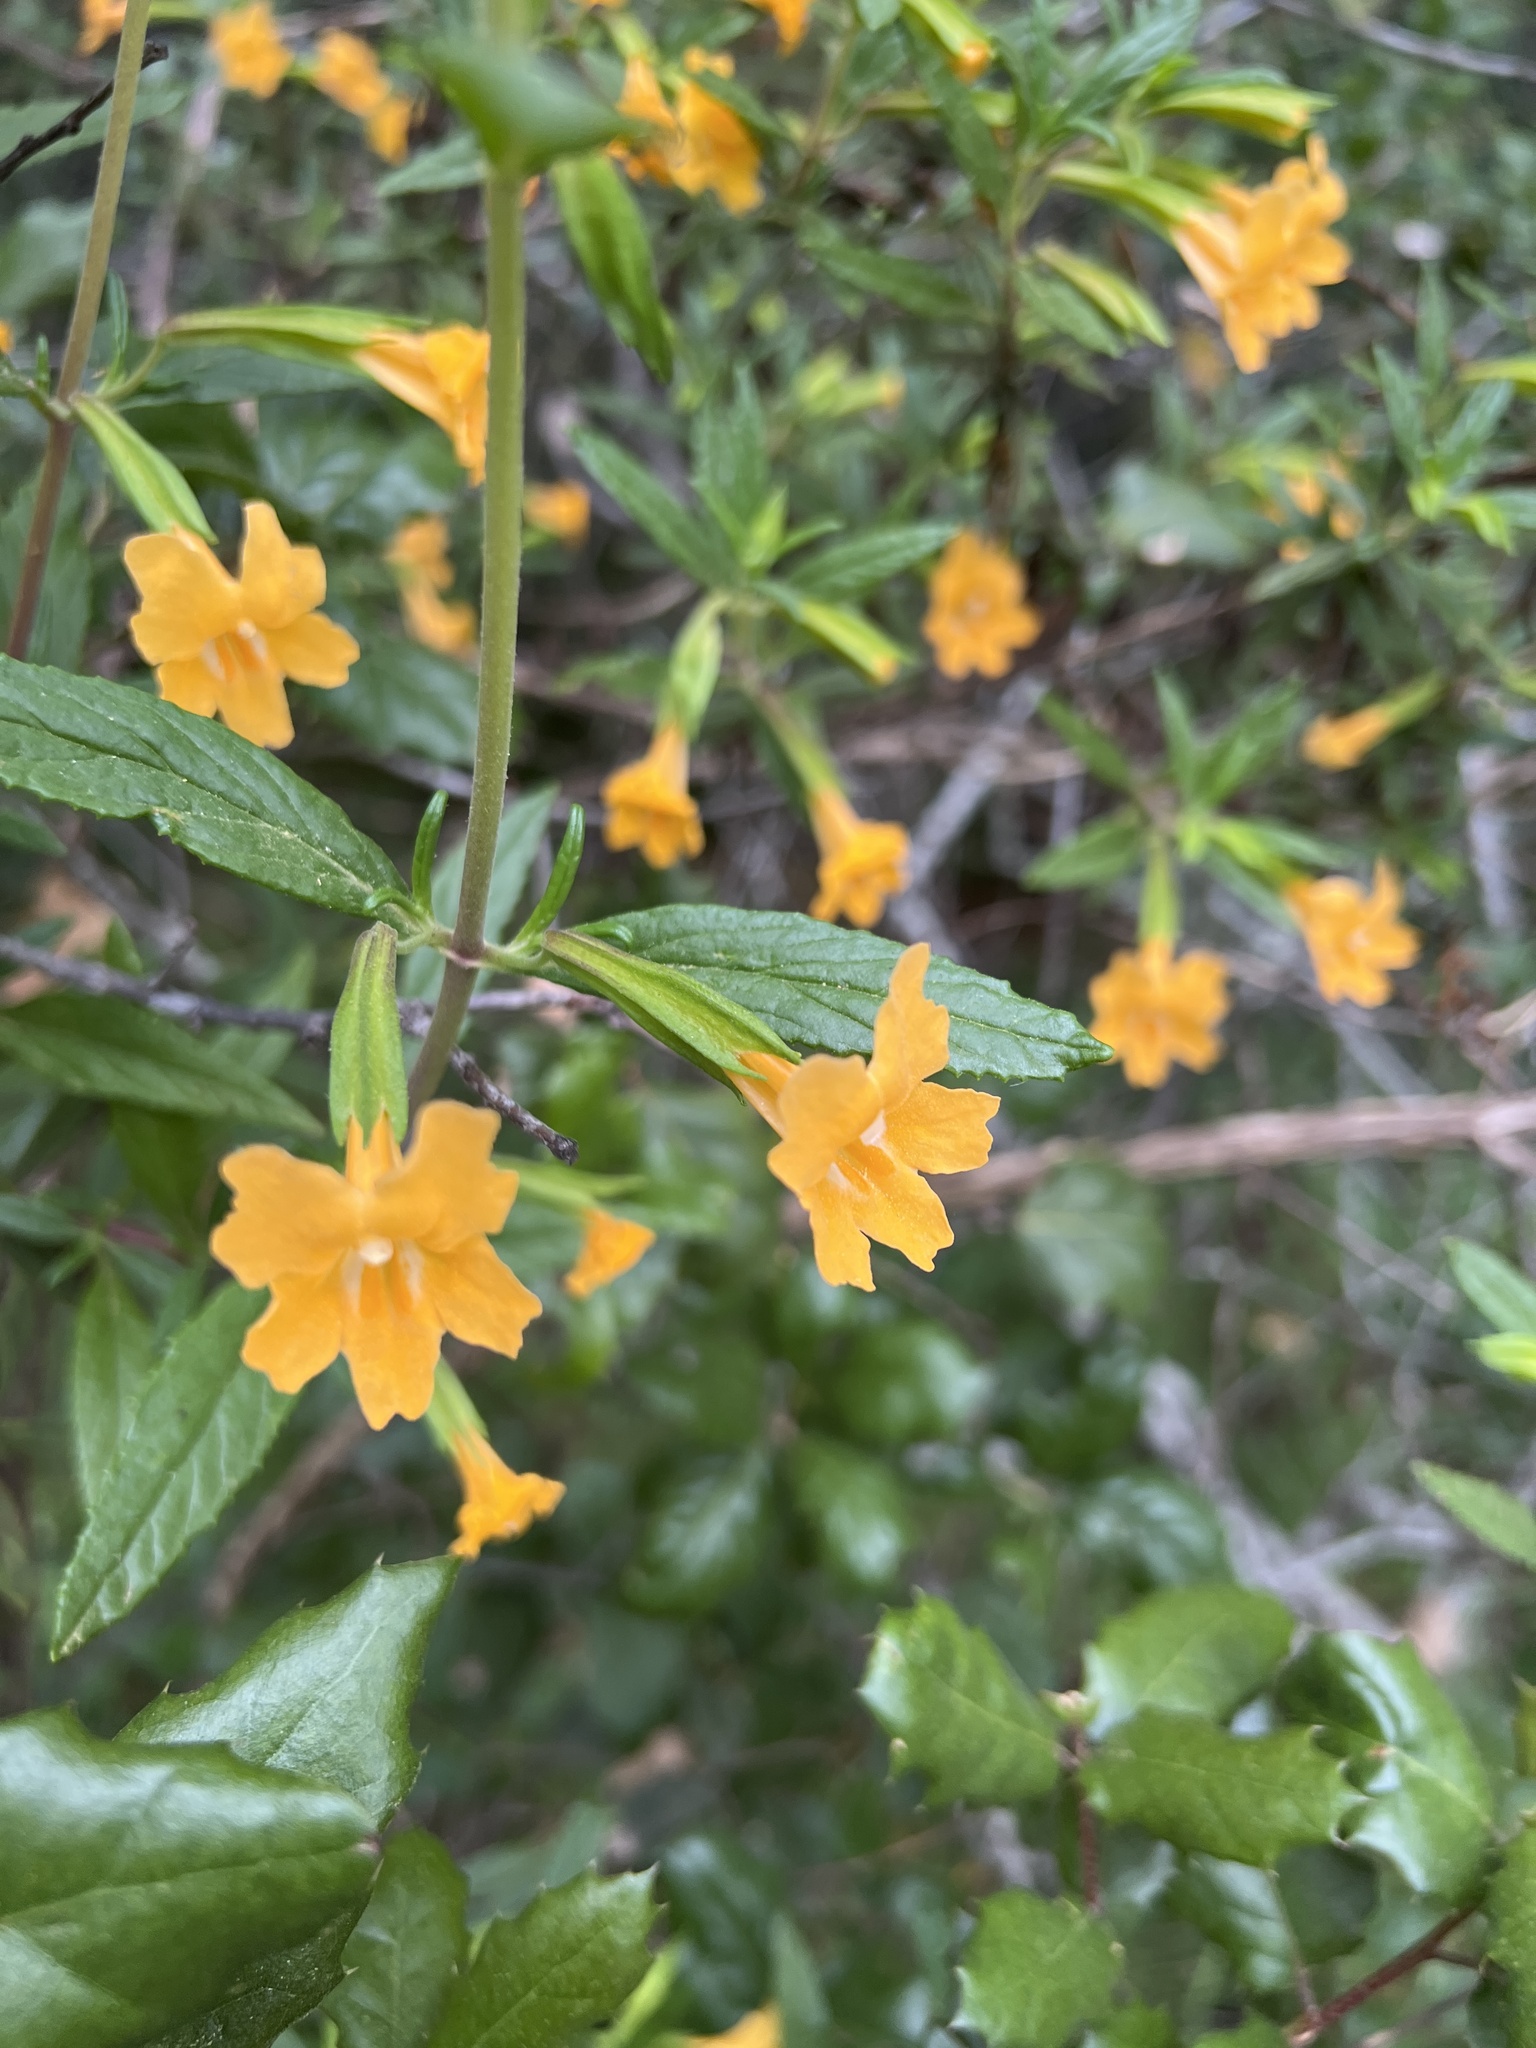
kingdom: Plantae
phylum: Tracheophyta
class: Magnoliopsida
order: Lamiales
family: Phrymaceae
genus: Diplacus
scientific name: Diplacus aurantiacus
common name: Bush monkey-flower
